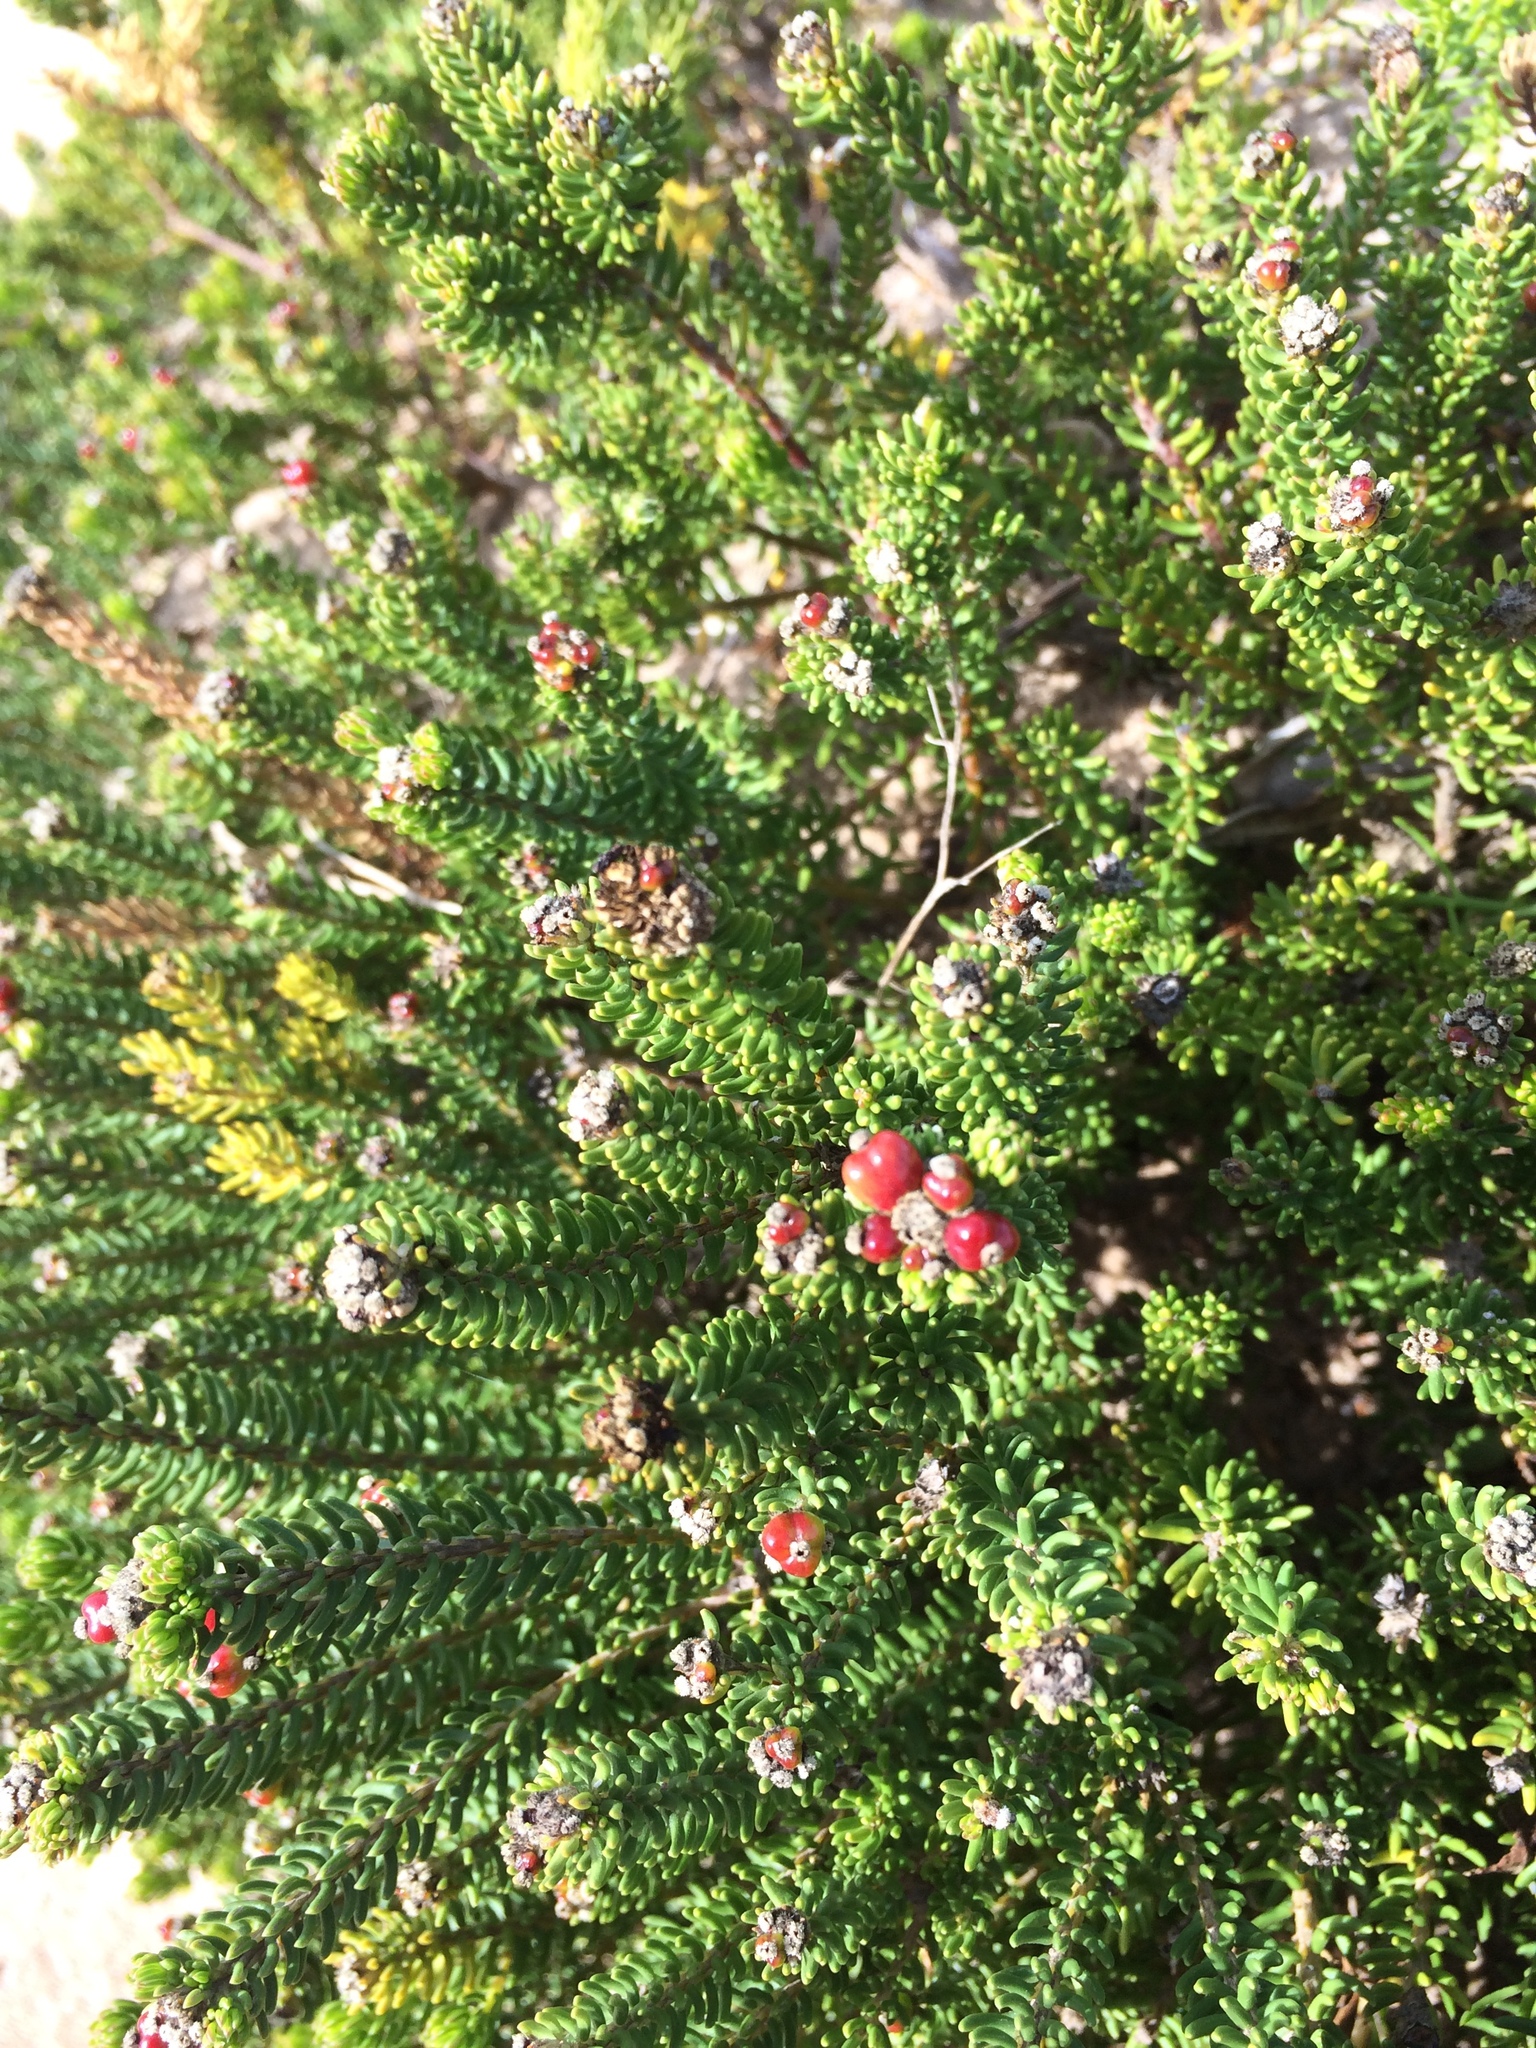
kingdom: Plantae
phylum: Tracheophyta
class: Magnoliopsida
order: Rosales
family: Rhamnaceae
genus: Phylica
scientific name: Phylica ericoides
